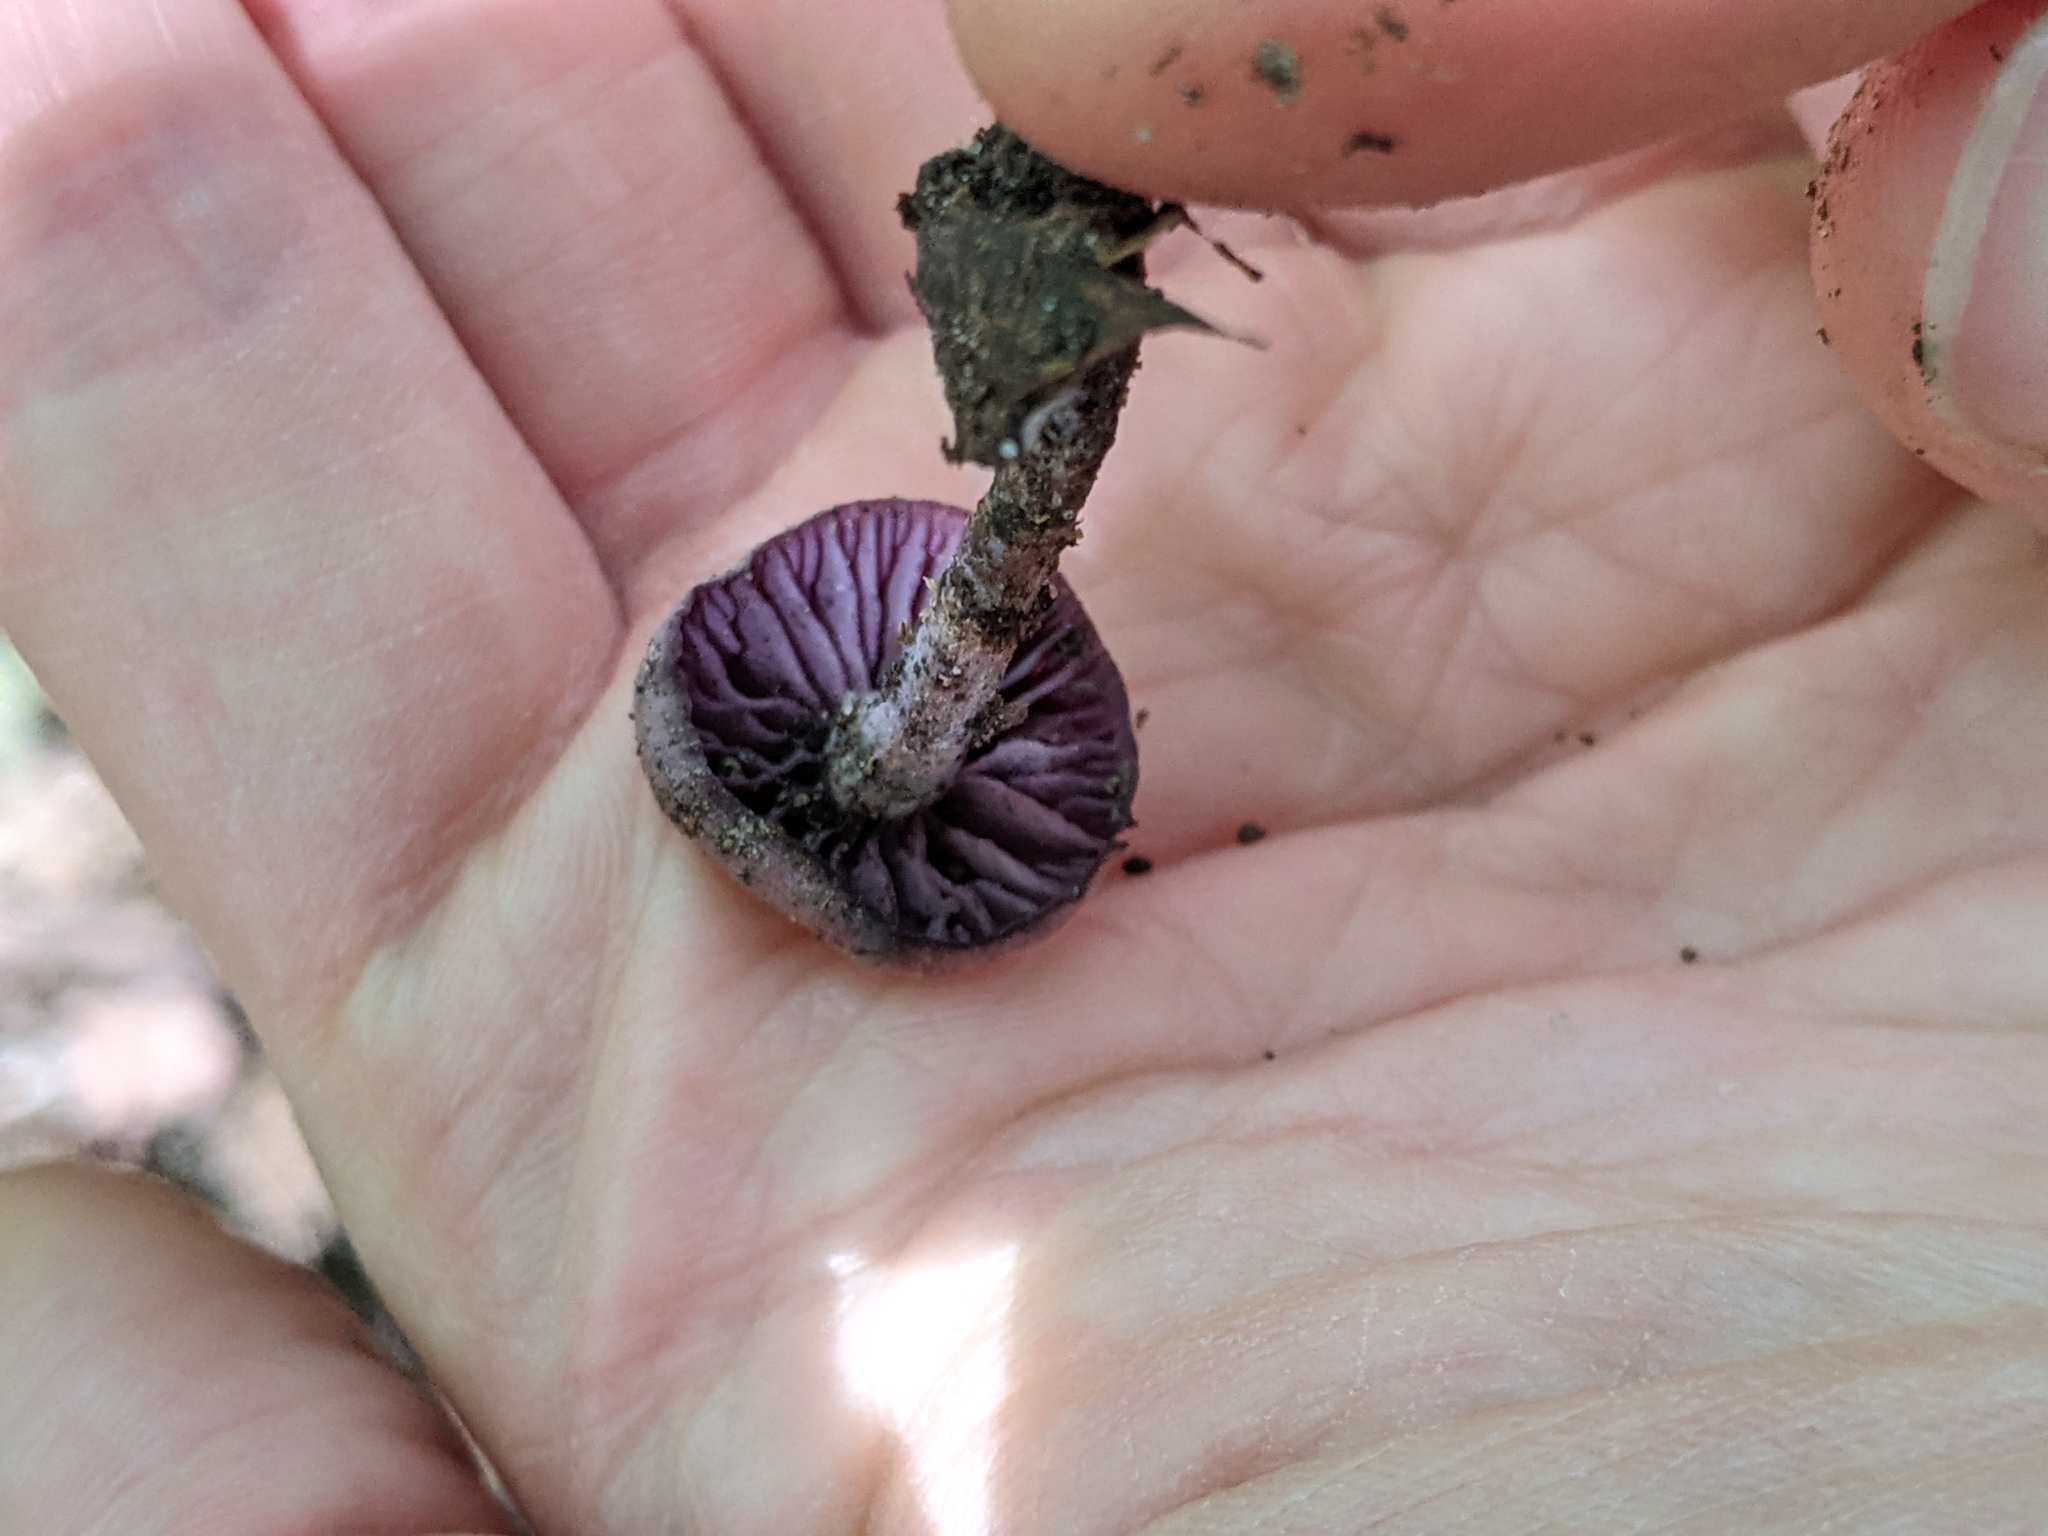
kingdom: Fungi
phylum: Basidiomycota
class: Agaricomycetes
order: Agaricales
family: Hydnangiaceae
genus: Laccaria
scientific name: Laccaria amethystina
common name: Amethyst deceiver
